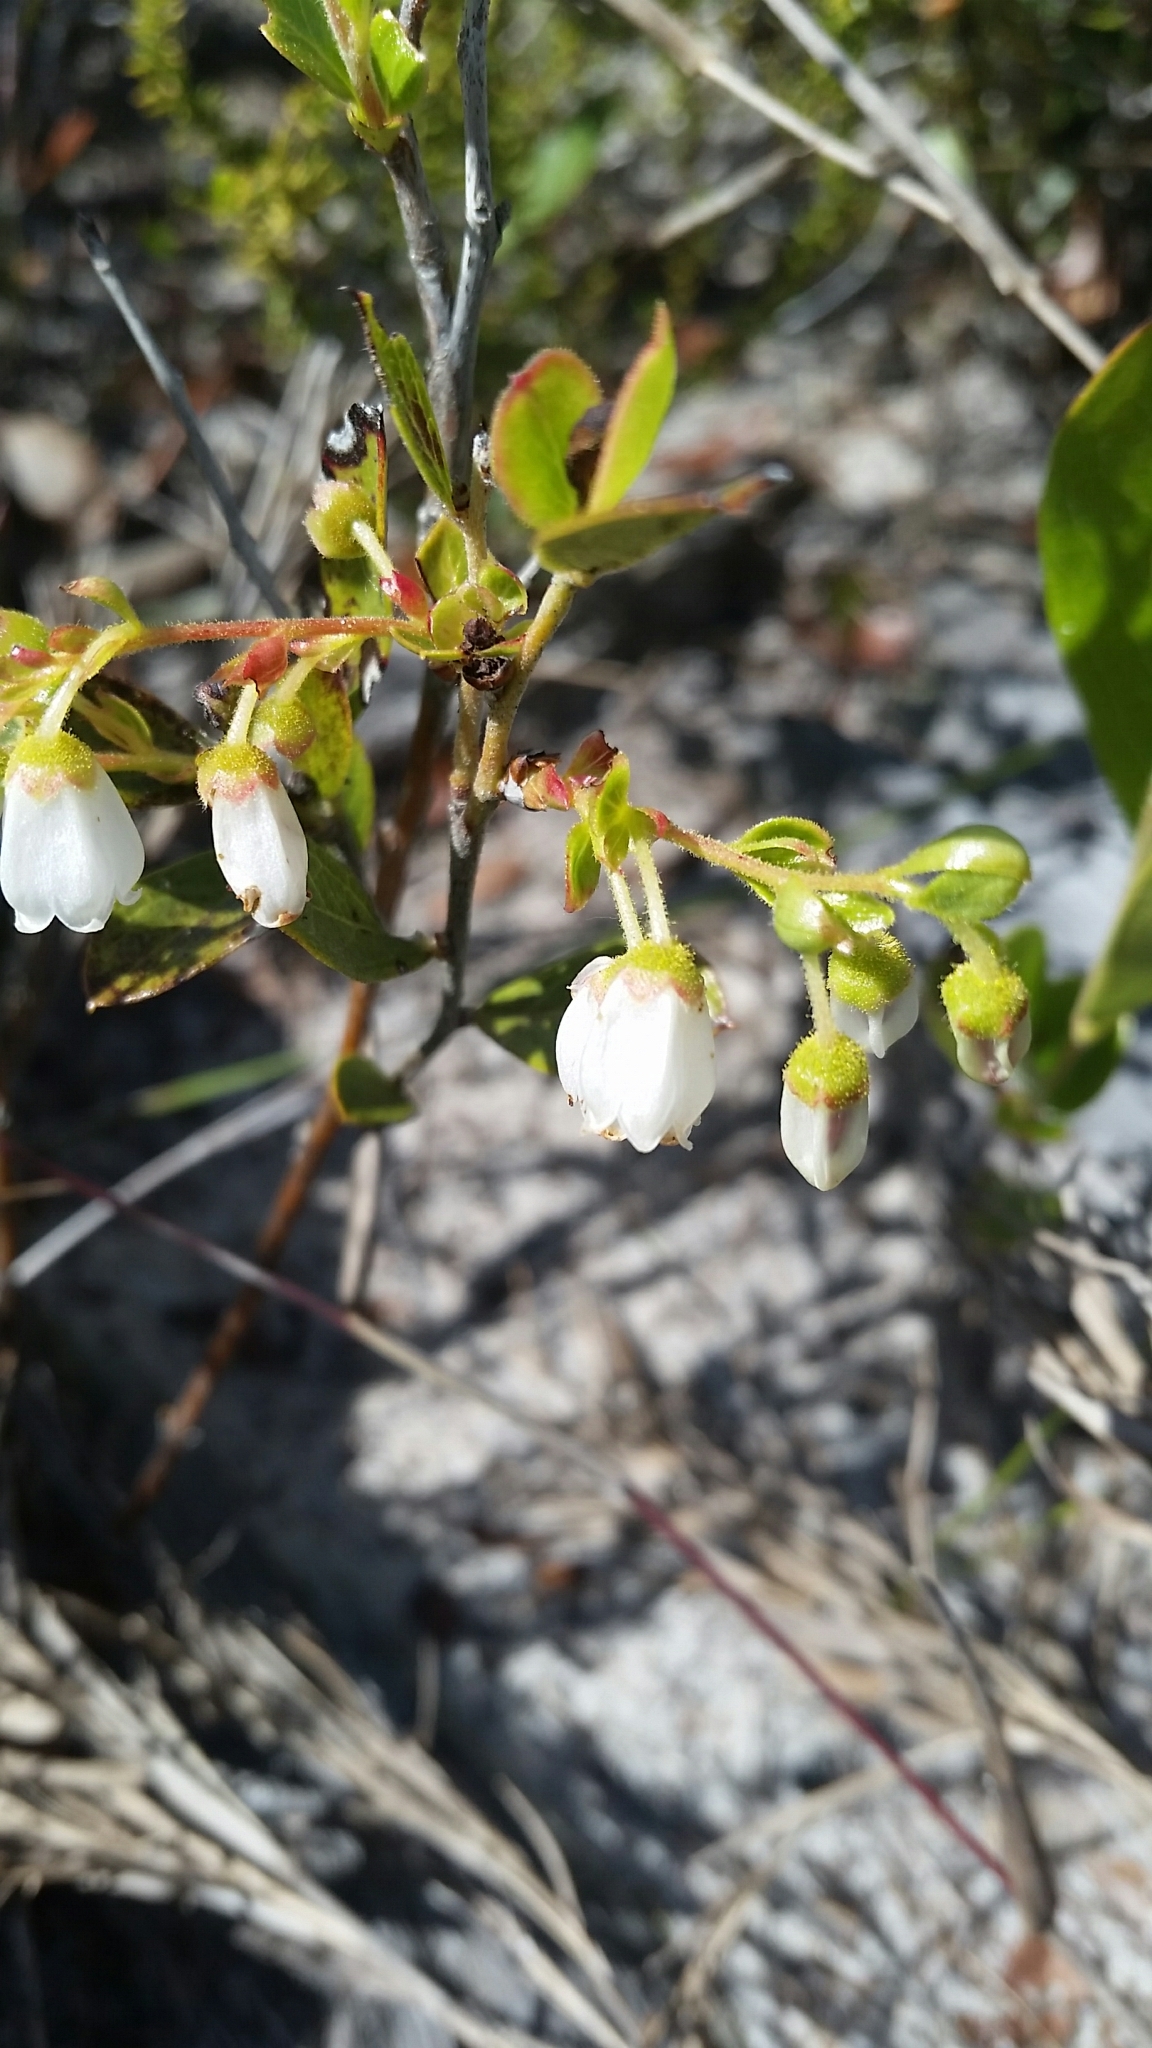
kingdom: Plantae
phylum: Tracheophyta
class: Magnoliopsida
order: Ericales
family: Ericaceae
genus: Gaylussacia
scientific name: Gaylussacia dumosa
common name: Dwarf huckleberry
